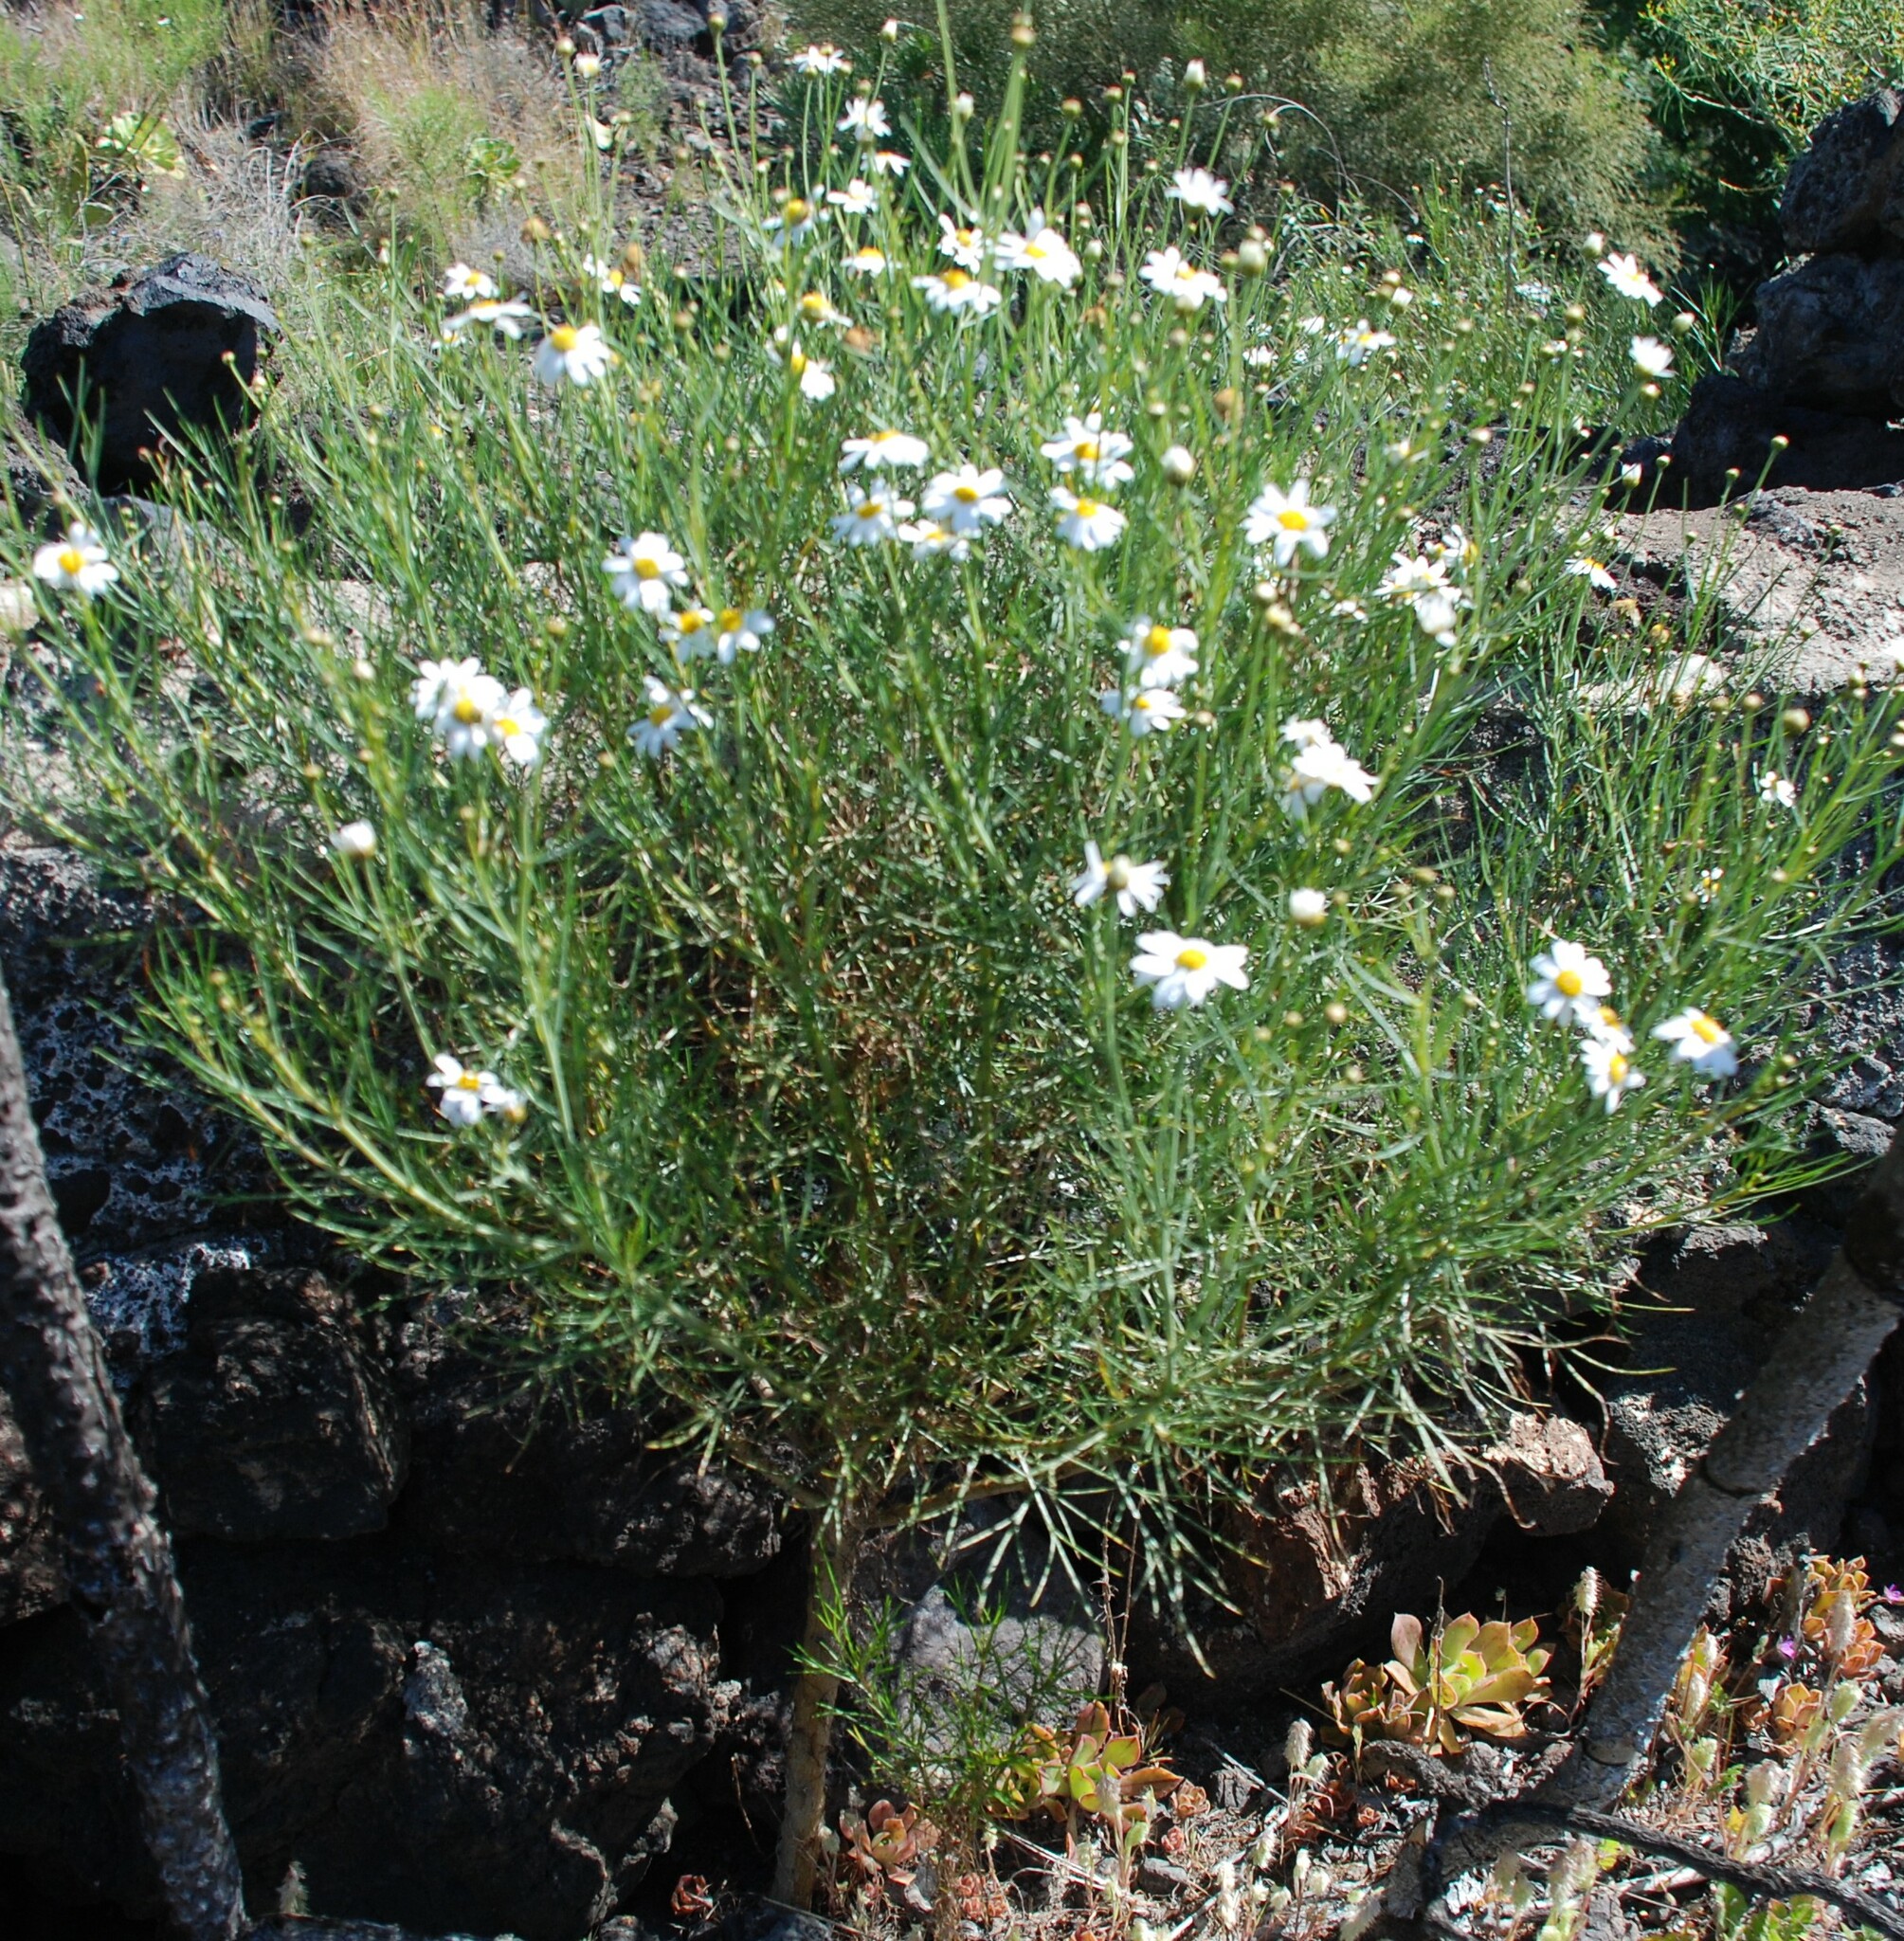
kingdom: Plantae
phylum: Tracheophyta
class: Magnoliopsida
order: Asterales
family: Asteraceae
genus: Argyranthemum
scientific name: Argyranthemum gracile
